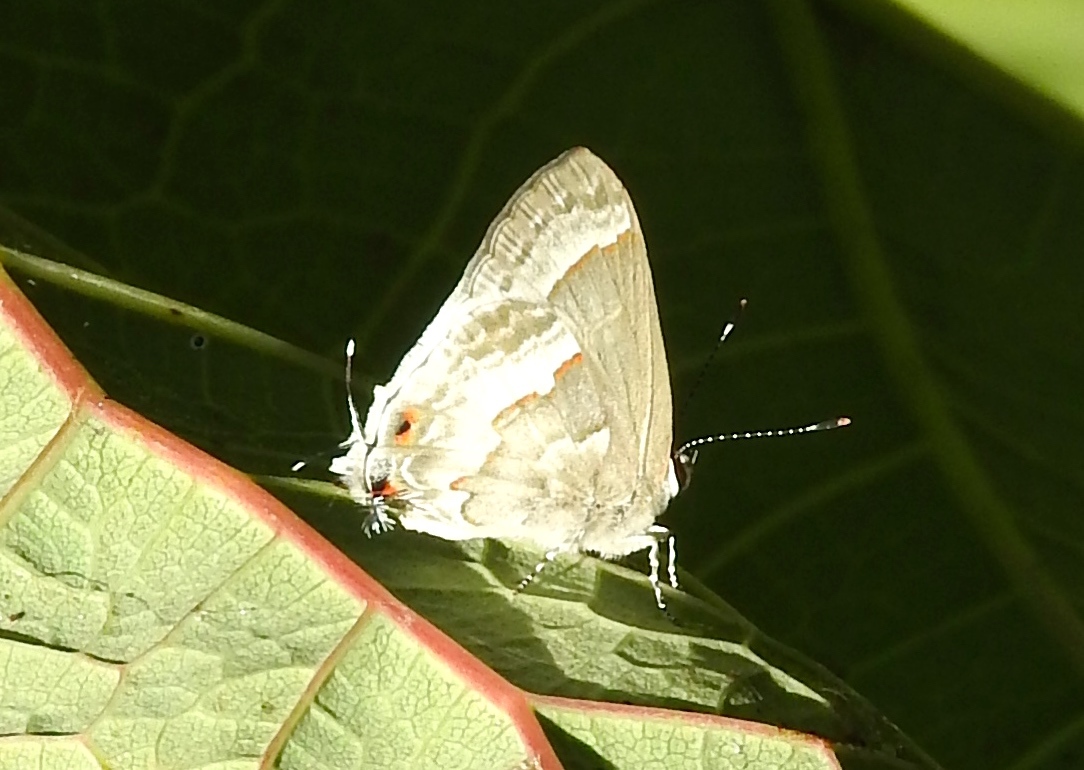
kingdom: Animalia
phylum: Arthropoda
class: Insecta
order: Lepidoptera
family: Lycaenidae
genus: Strymon
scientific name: Strymon albata
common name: White scrub-hairstreak
